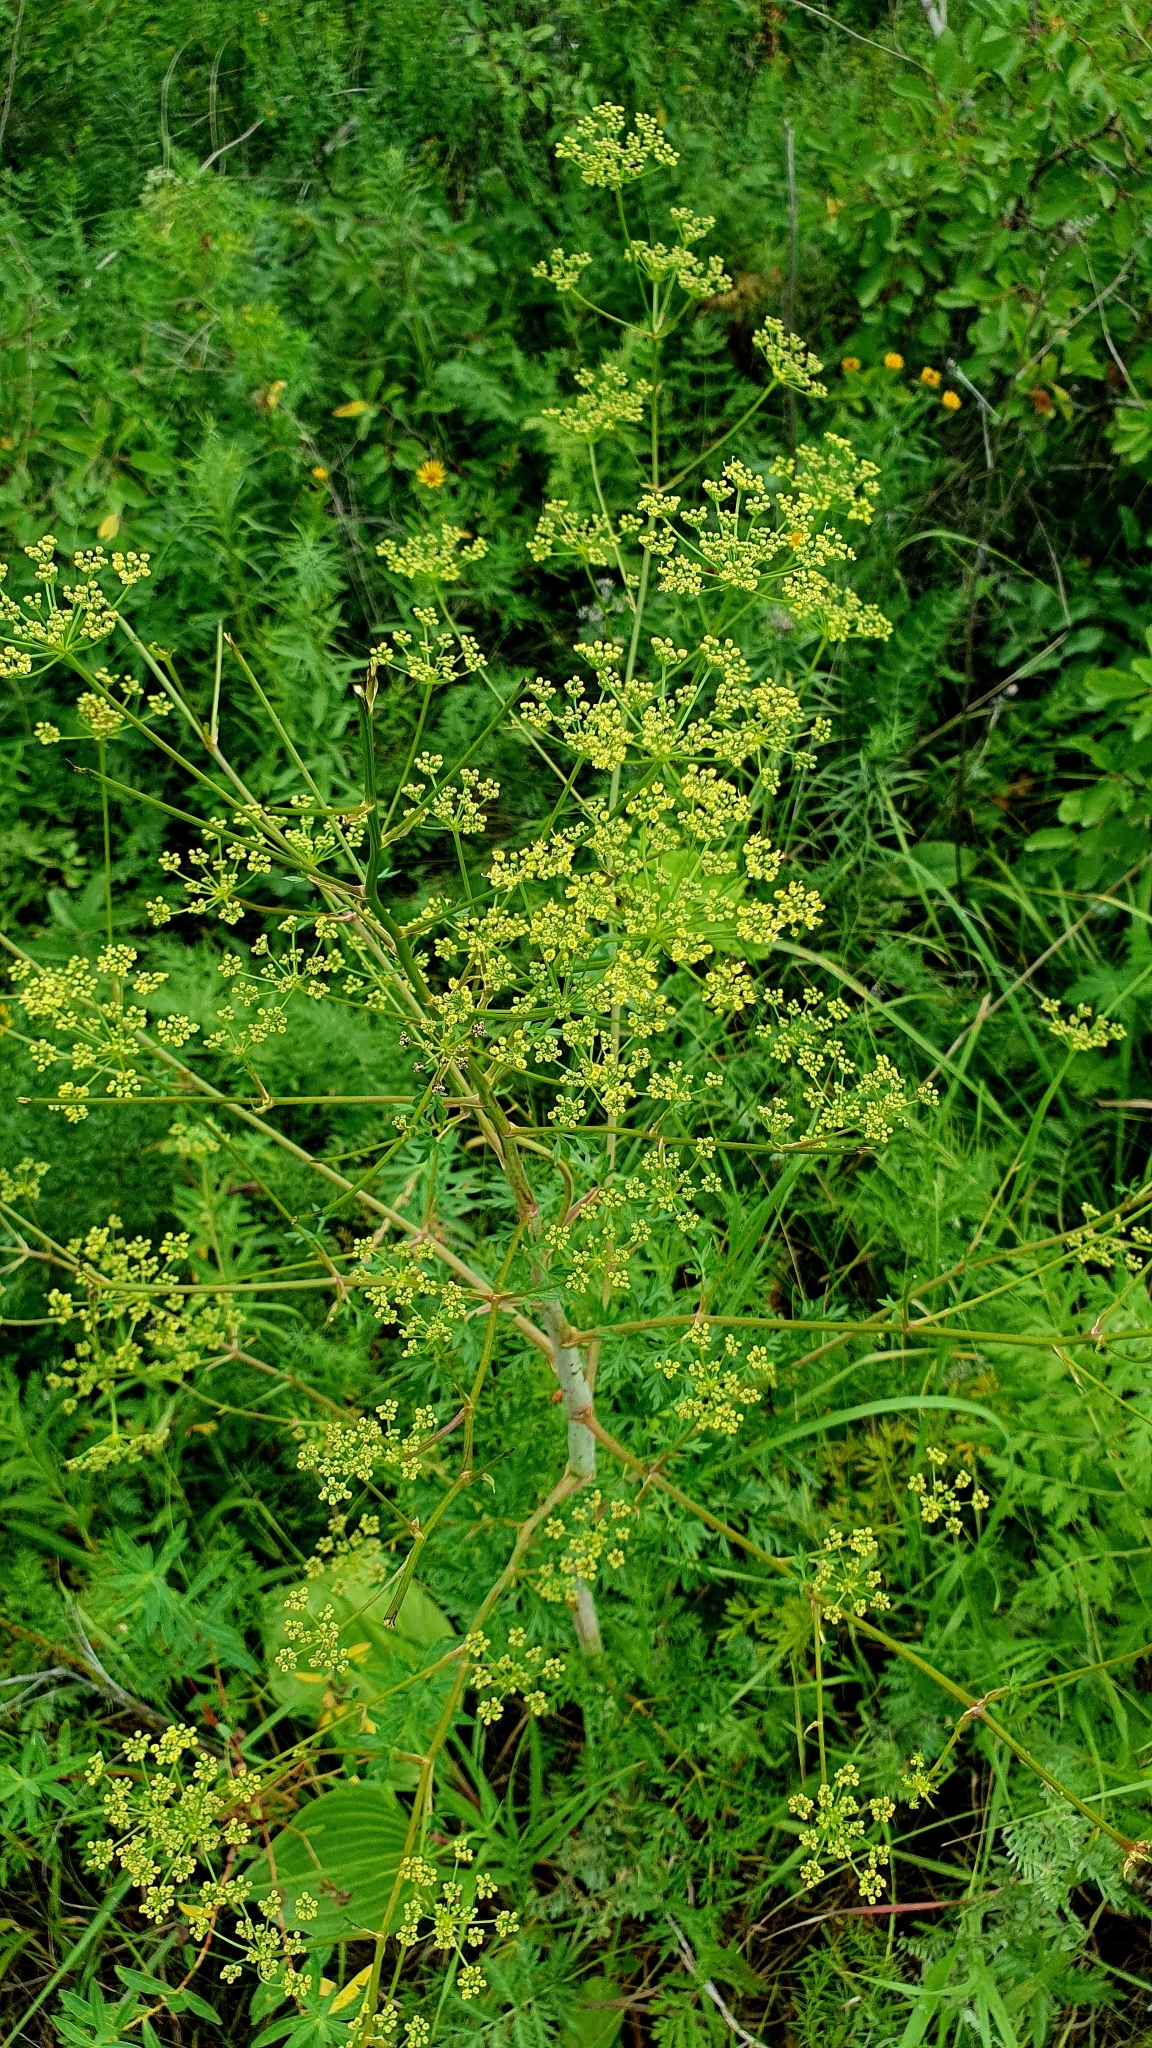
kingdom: Plantae
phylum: Tracheophyta
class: Magnoliopsida
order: Apiales
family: Apiaceae
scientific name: Apiaceae
